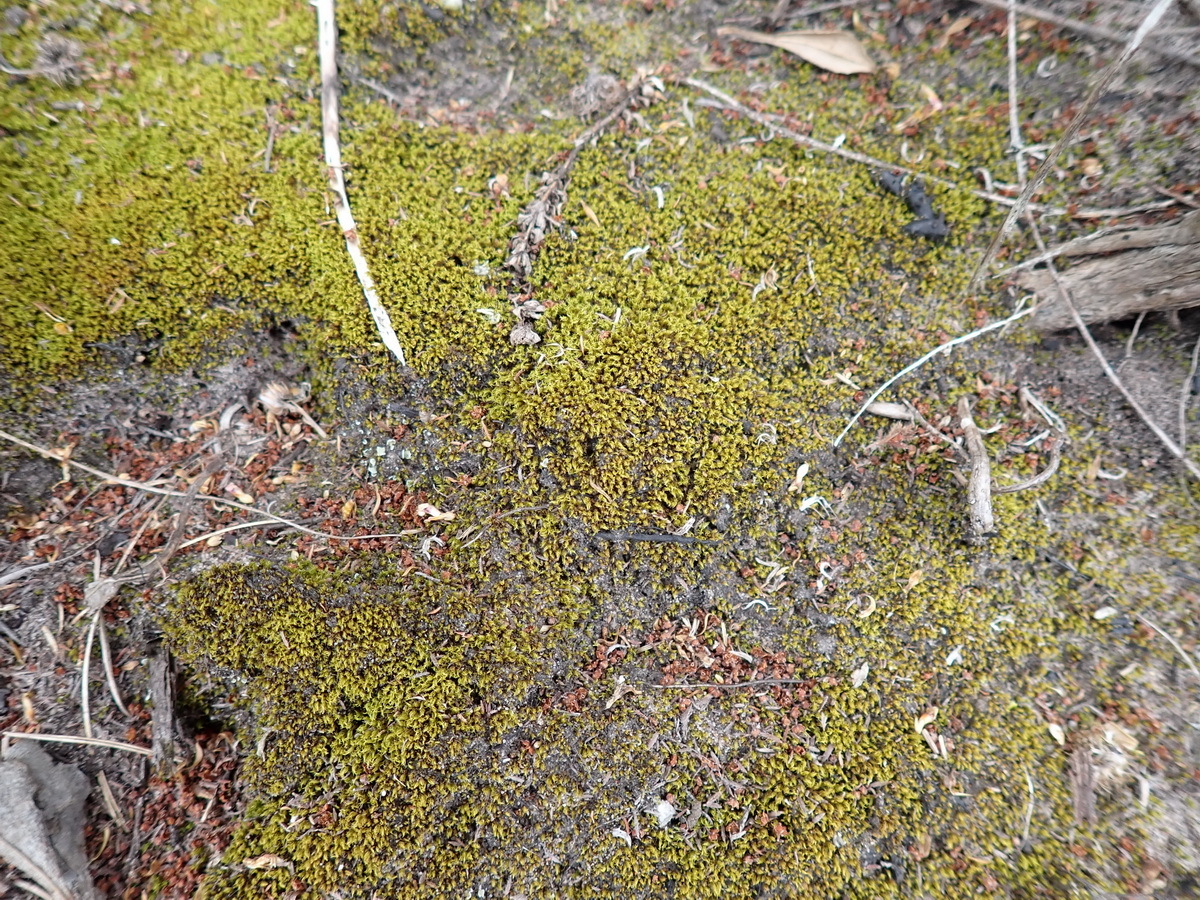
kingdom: Plantae
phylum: Bryophyta
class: Bryopsida
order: Dicranales
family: Ditrichaceae
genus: Ceratodon
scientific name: Ceratodon purpureus
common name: Redshank
